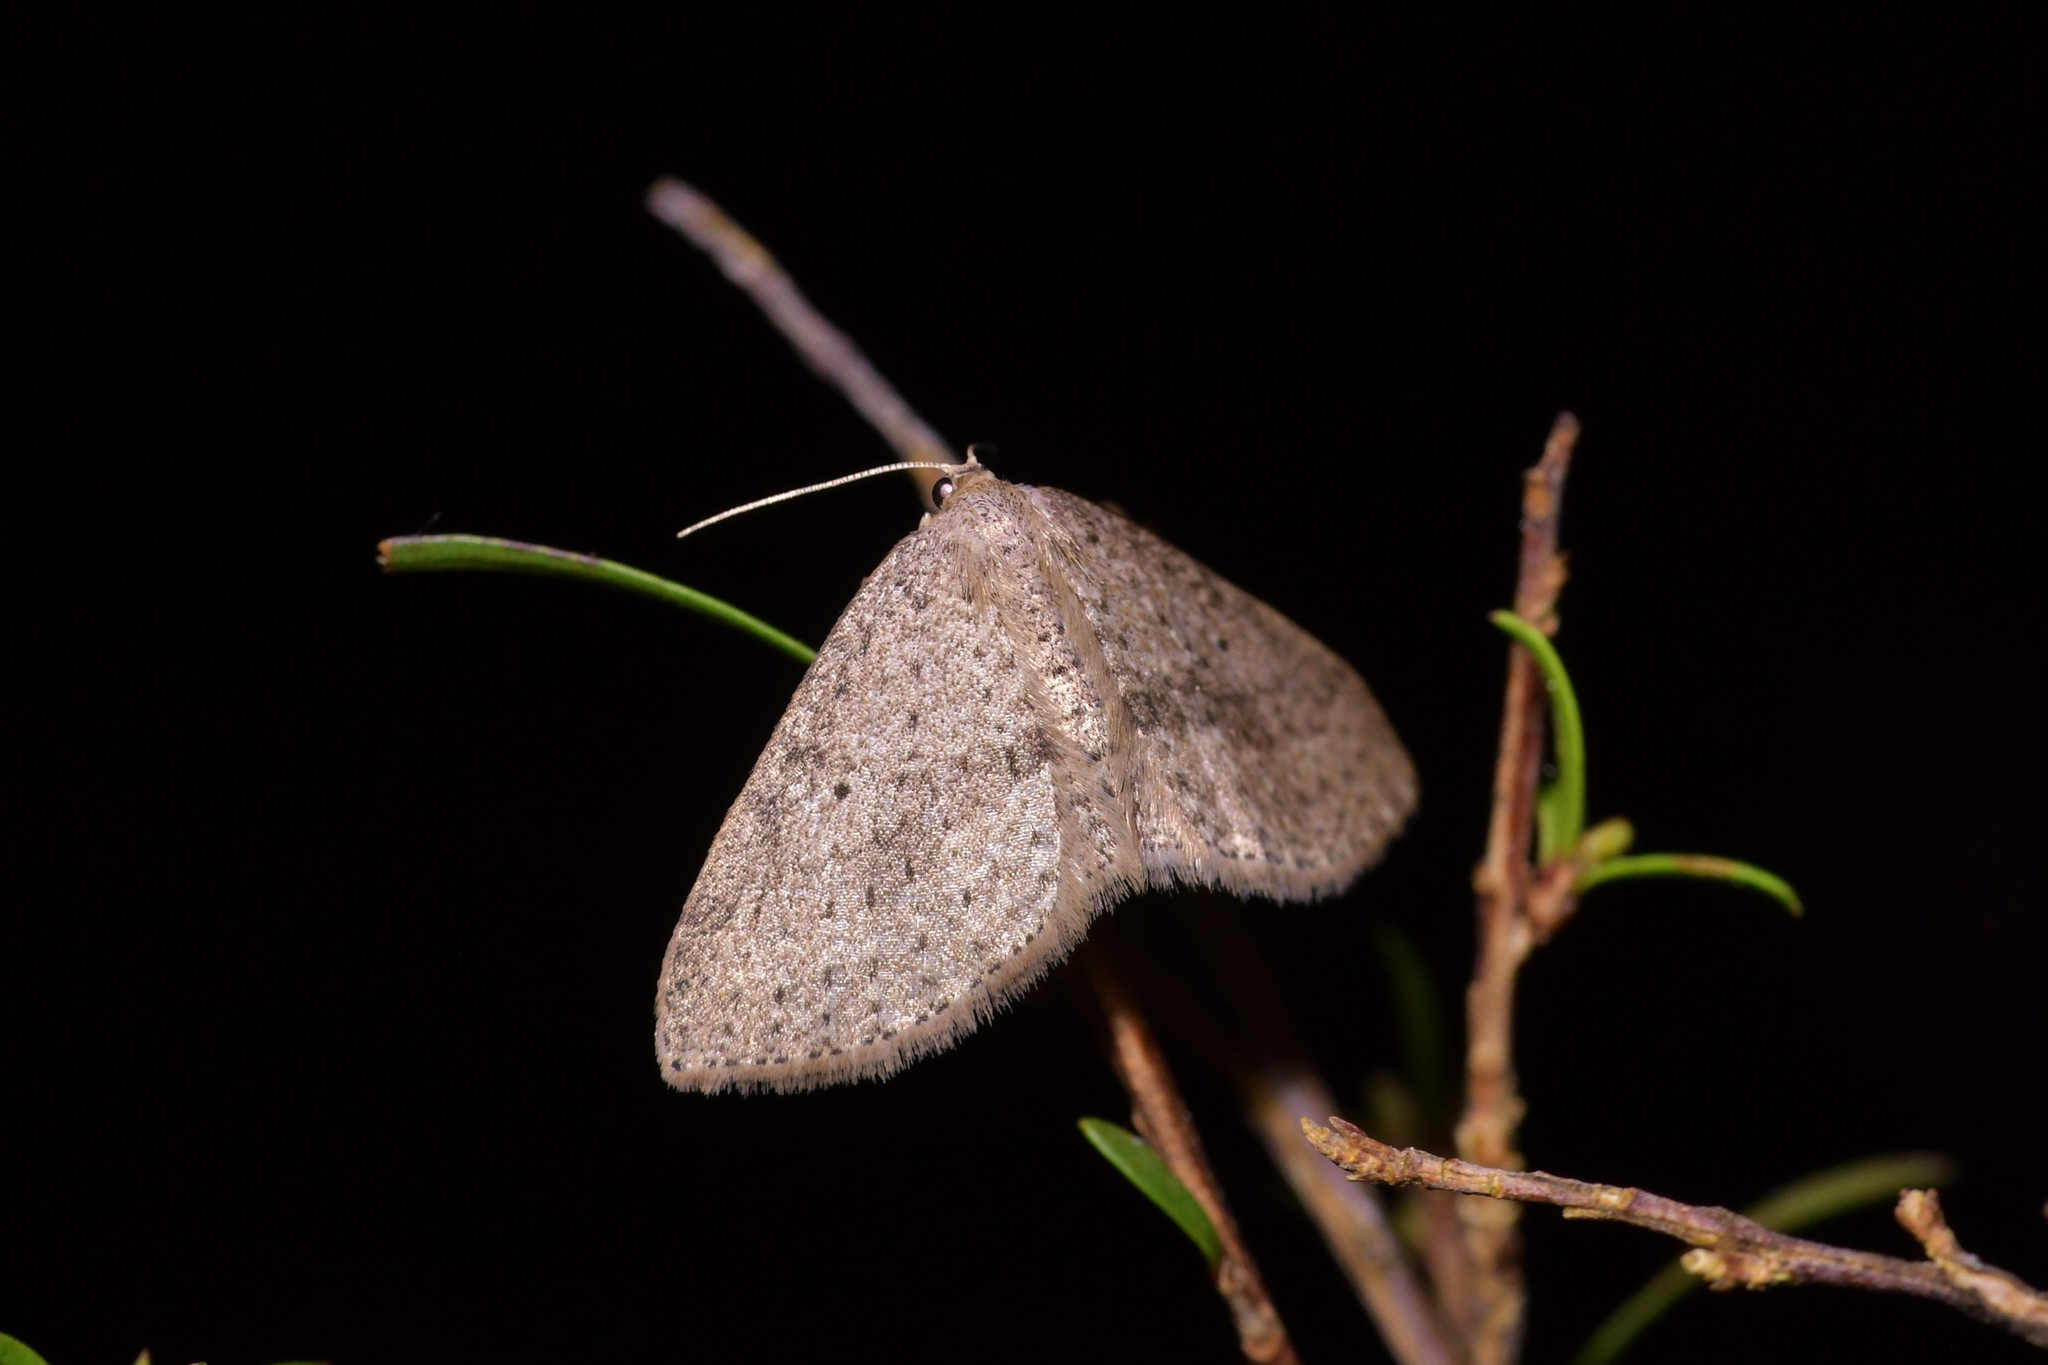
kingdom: Animalia
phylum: Arthropoda
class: Insecta
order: Lepidoptera
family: Geometridae
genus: Poecilasthena
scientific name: Poecilasthena schistaria
